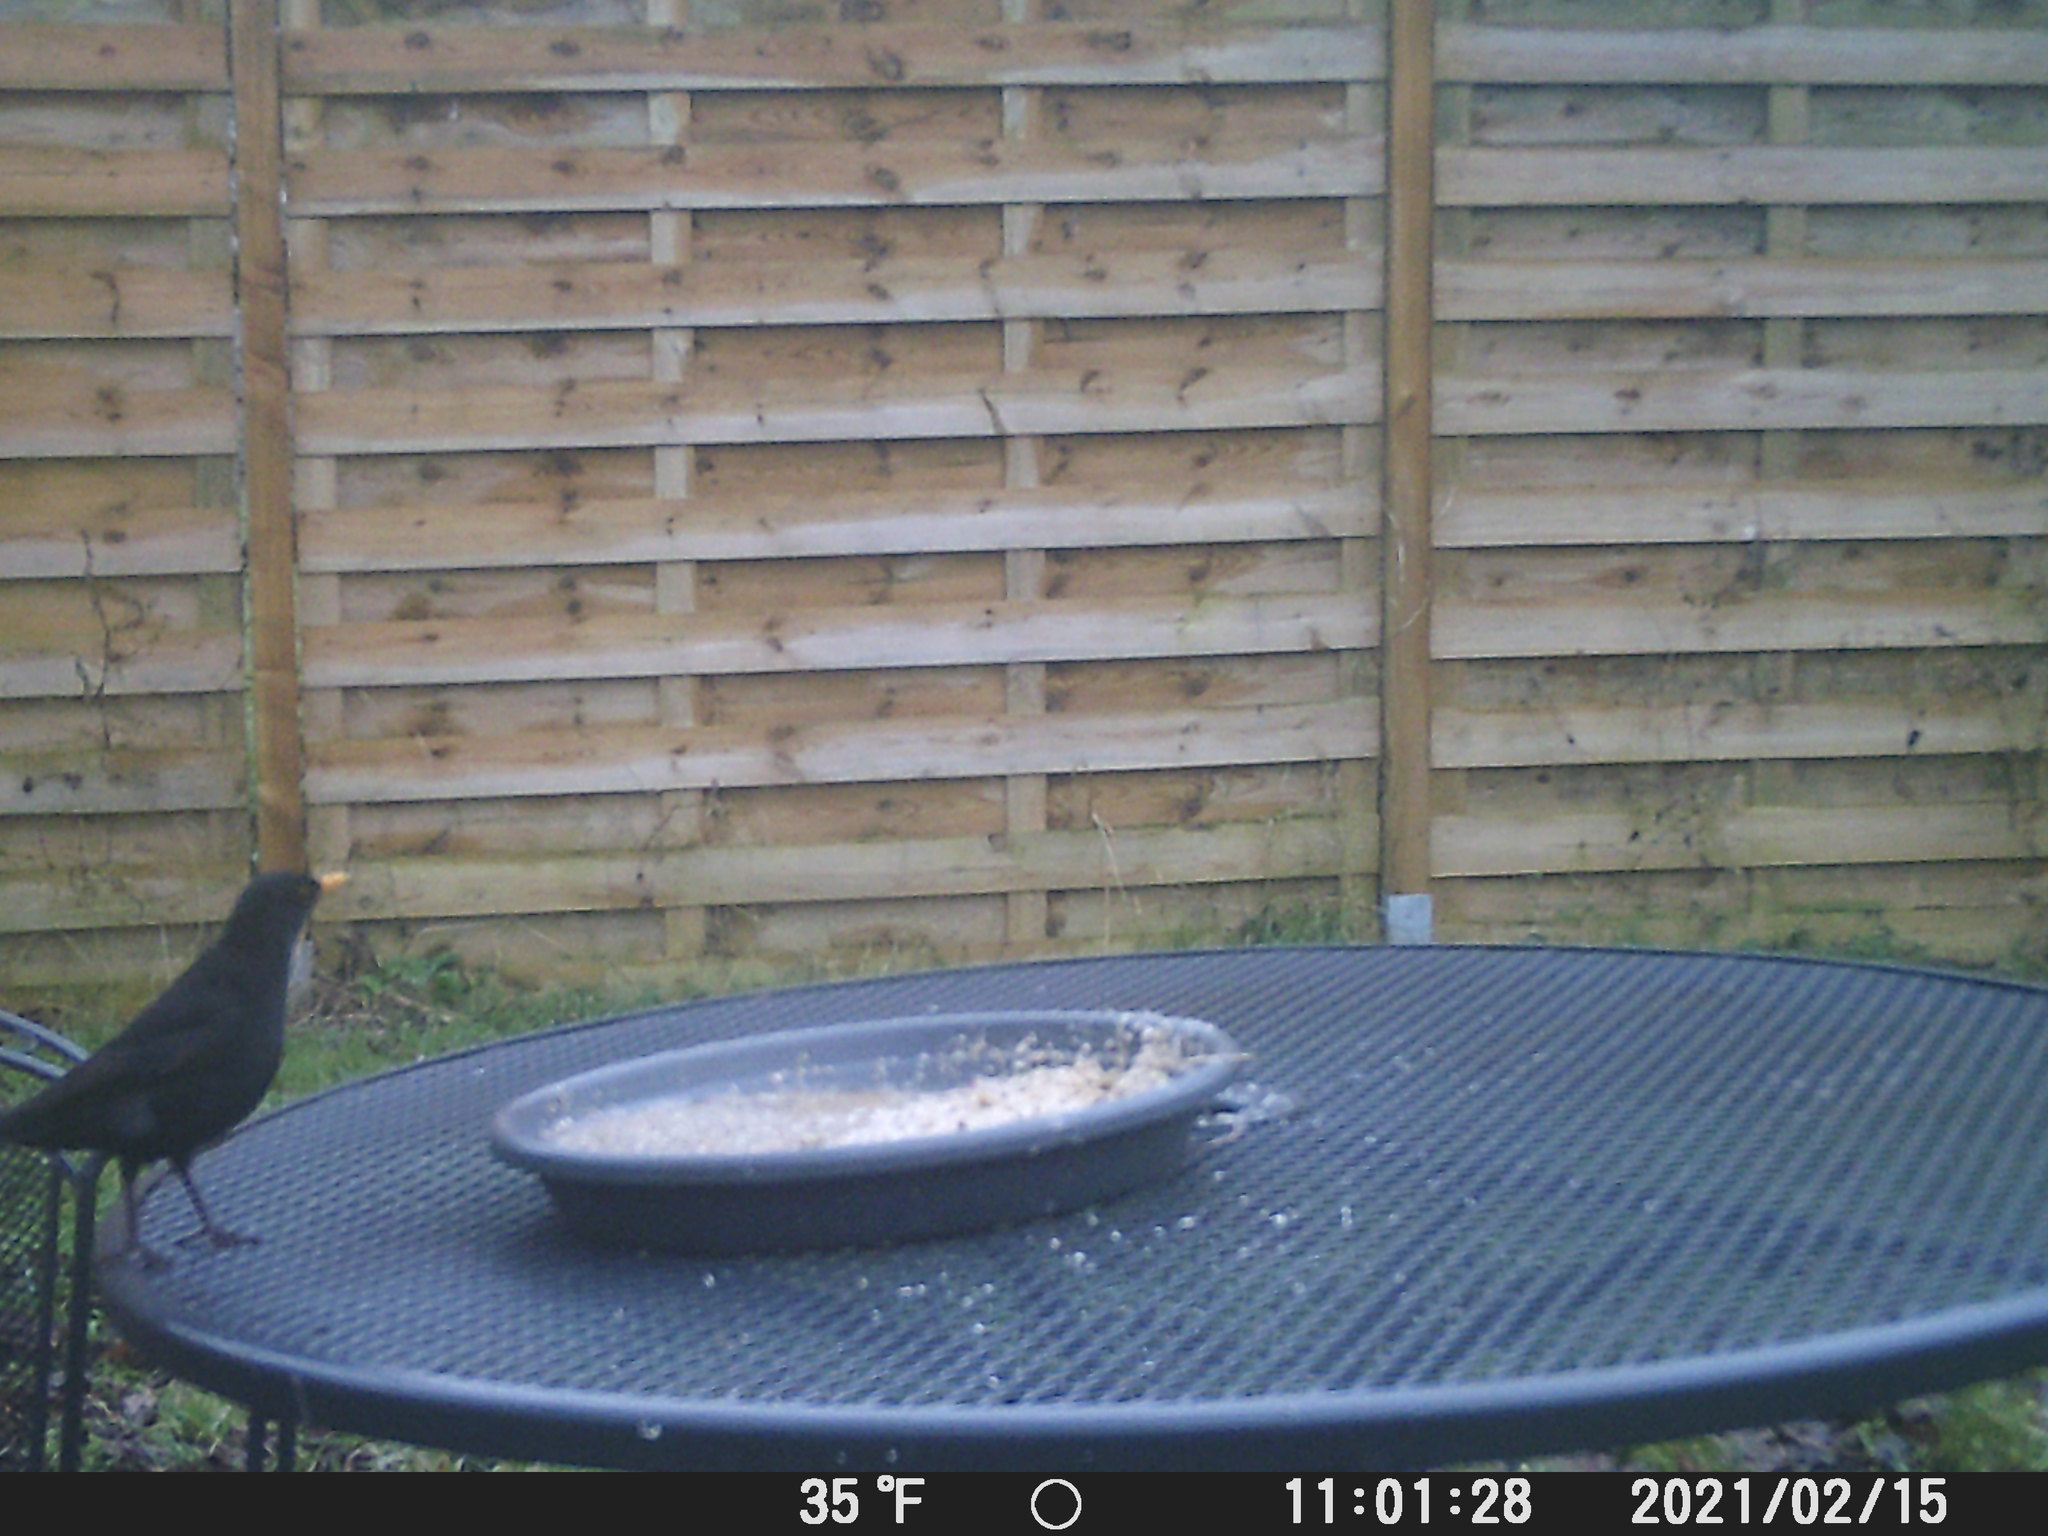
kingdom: Animalia
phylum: Chordata
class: Aves
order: Passeriformes
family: Turdidae
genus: Turdus
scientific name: Turdus merula
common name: Common blackbird
